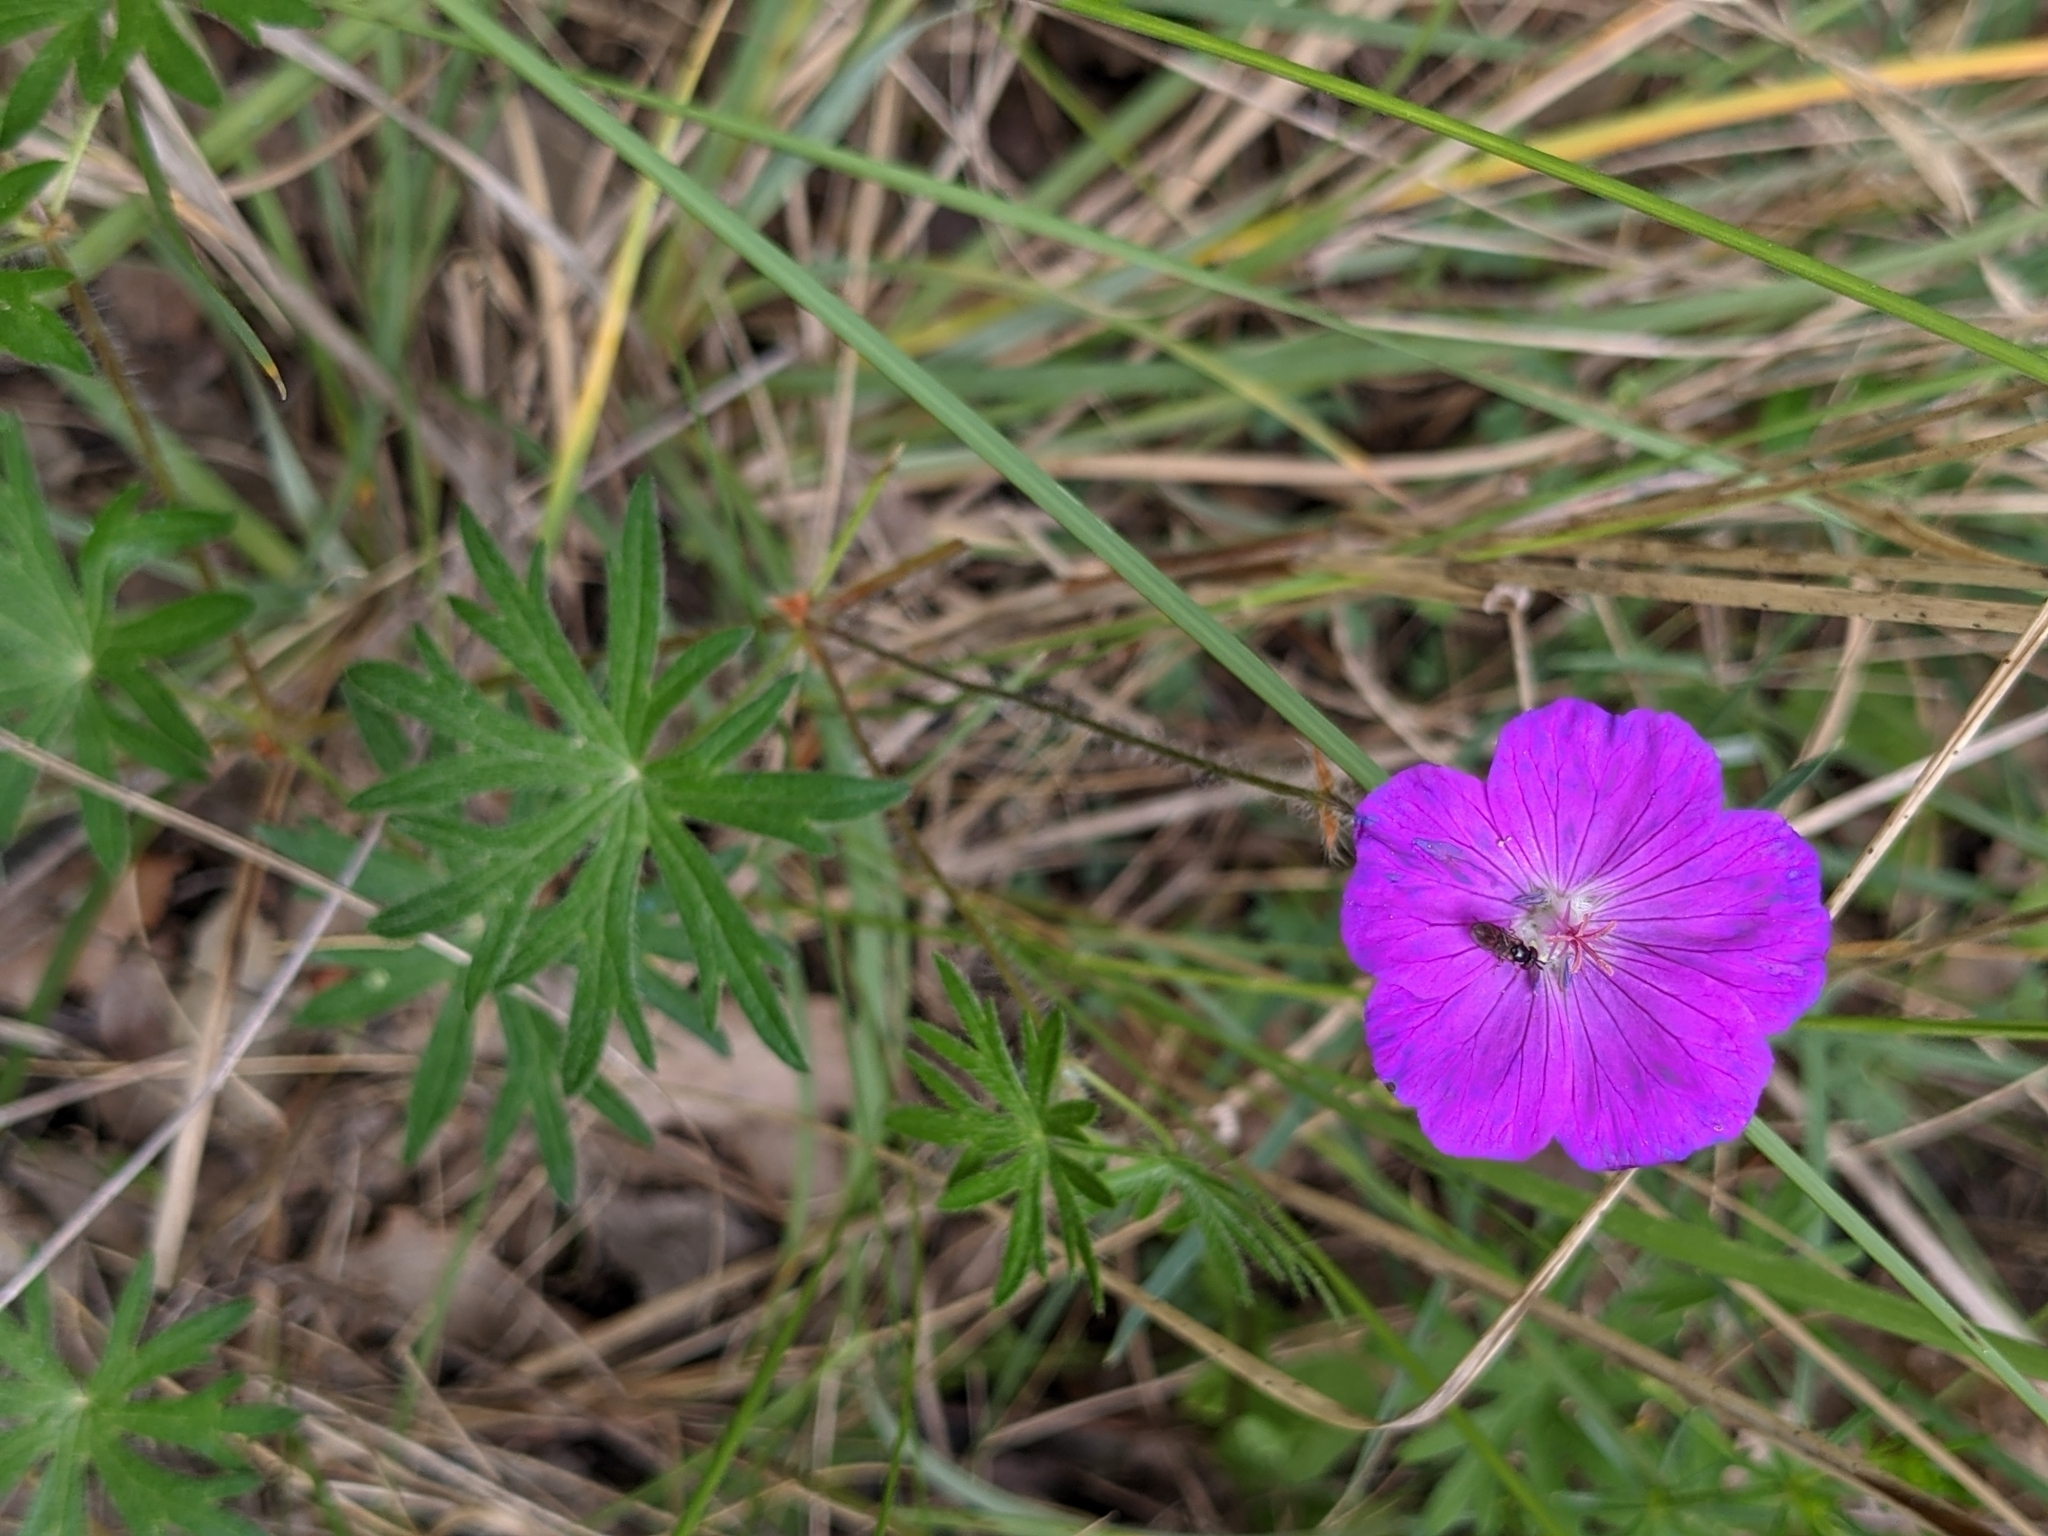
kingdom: Plantae
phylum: Tracheophyta
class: Magnoliopsida
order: Geraniales
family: Geraniaceae
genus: Geranium
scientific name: Geranium sanguineum
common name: Bloody crane's-bill
